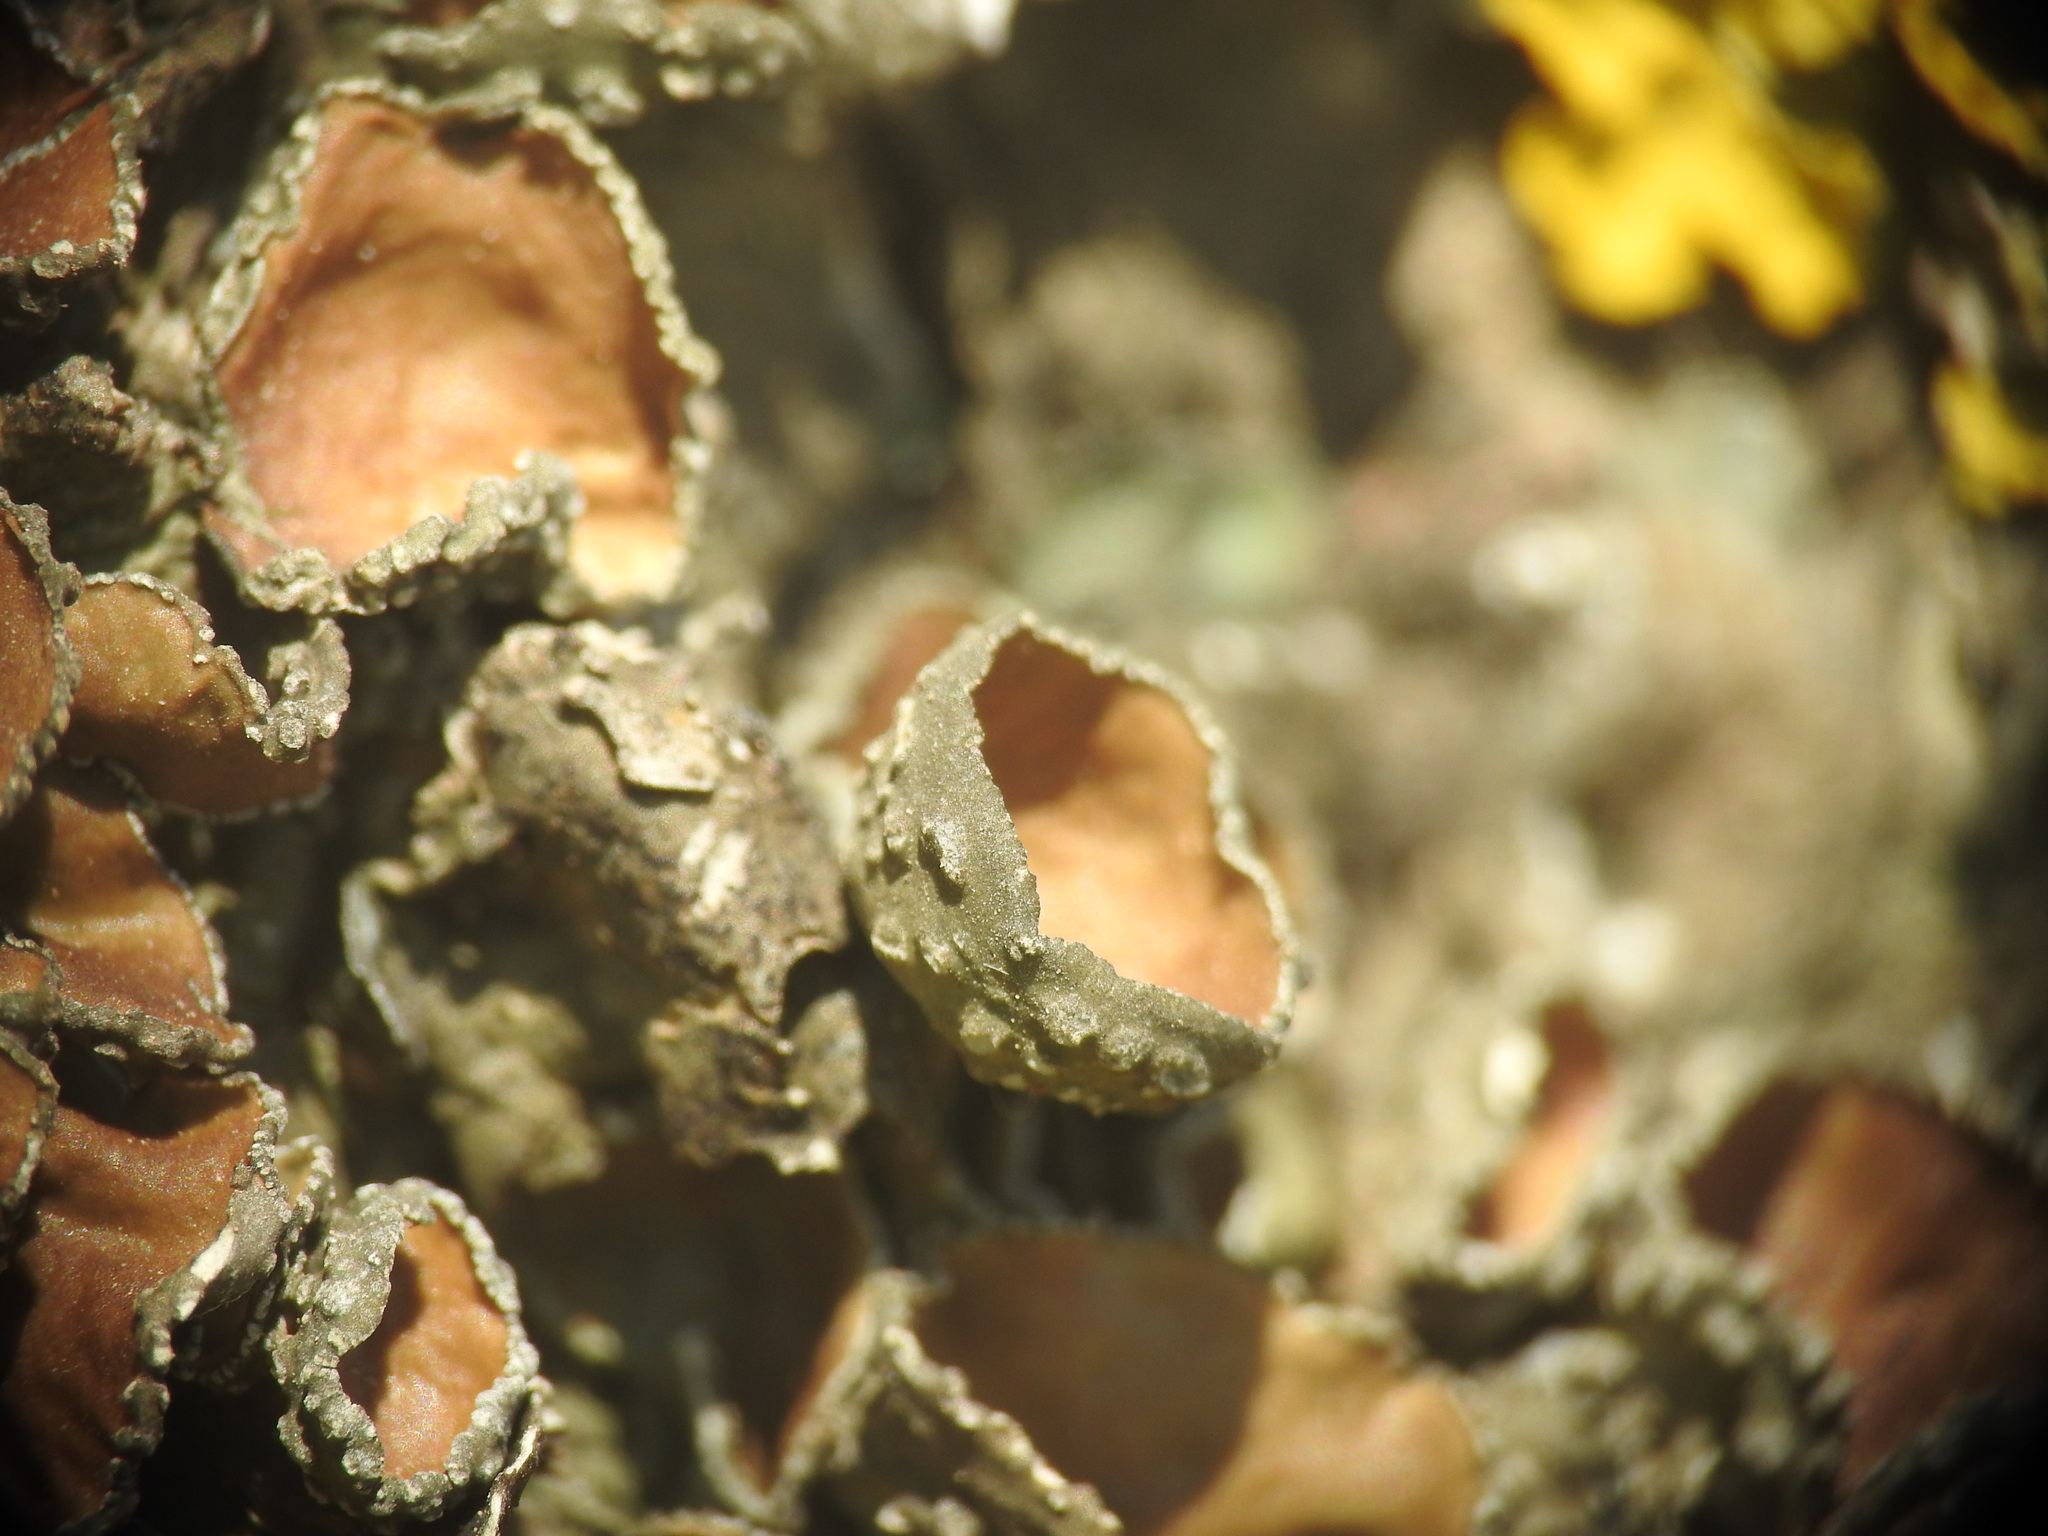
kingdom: Fungi
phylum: Ascomycota
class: Lecanoromycetes
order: Lecanorales
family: Parmeliaceae
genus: Pleurosticta
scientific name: Pleurosticta acetabulum
